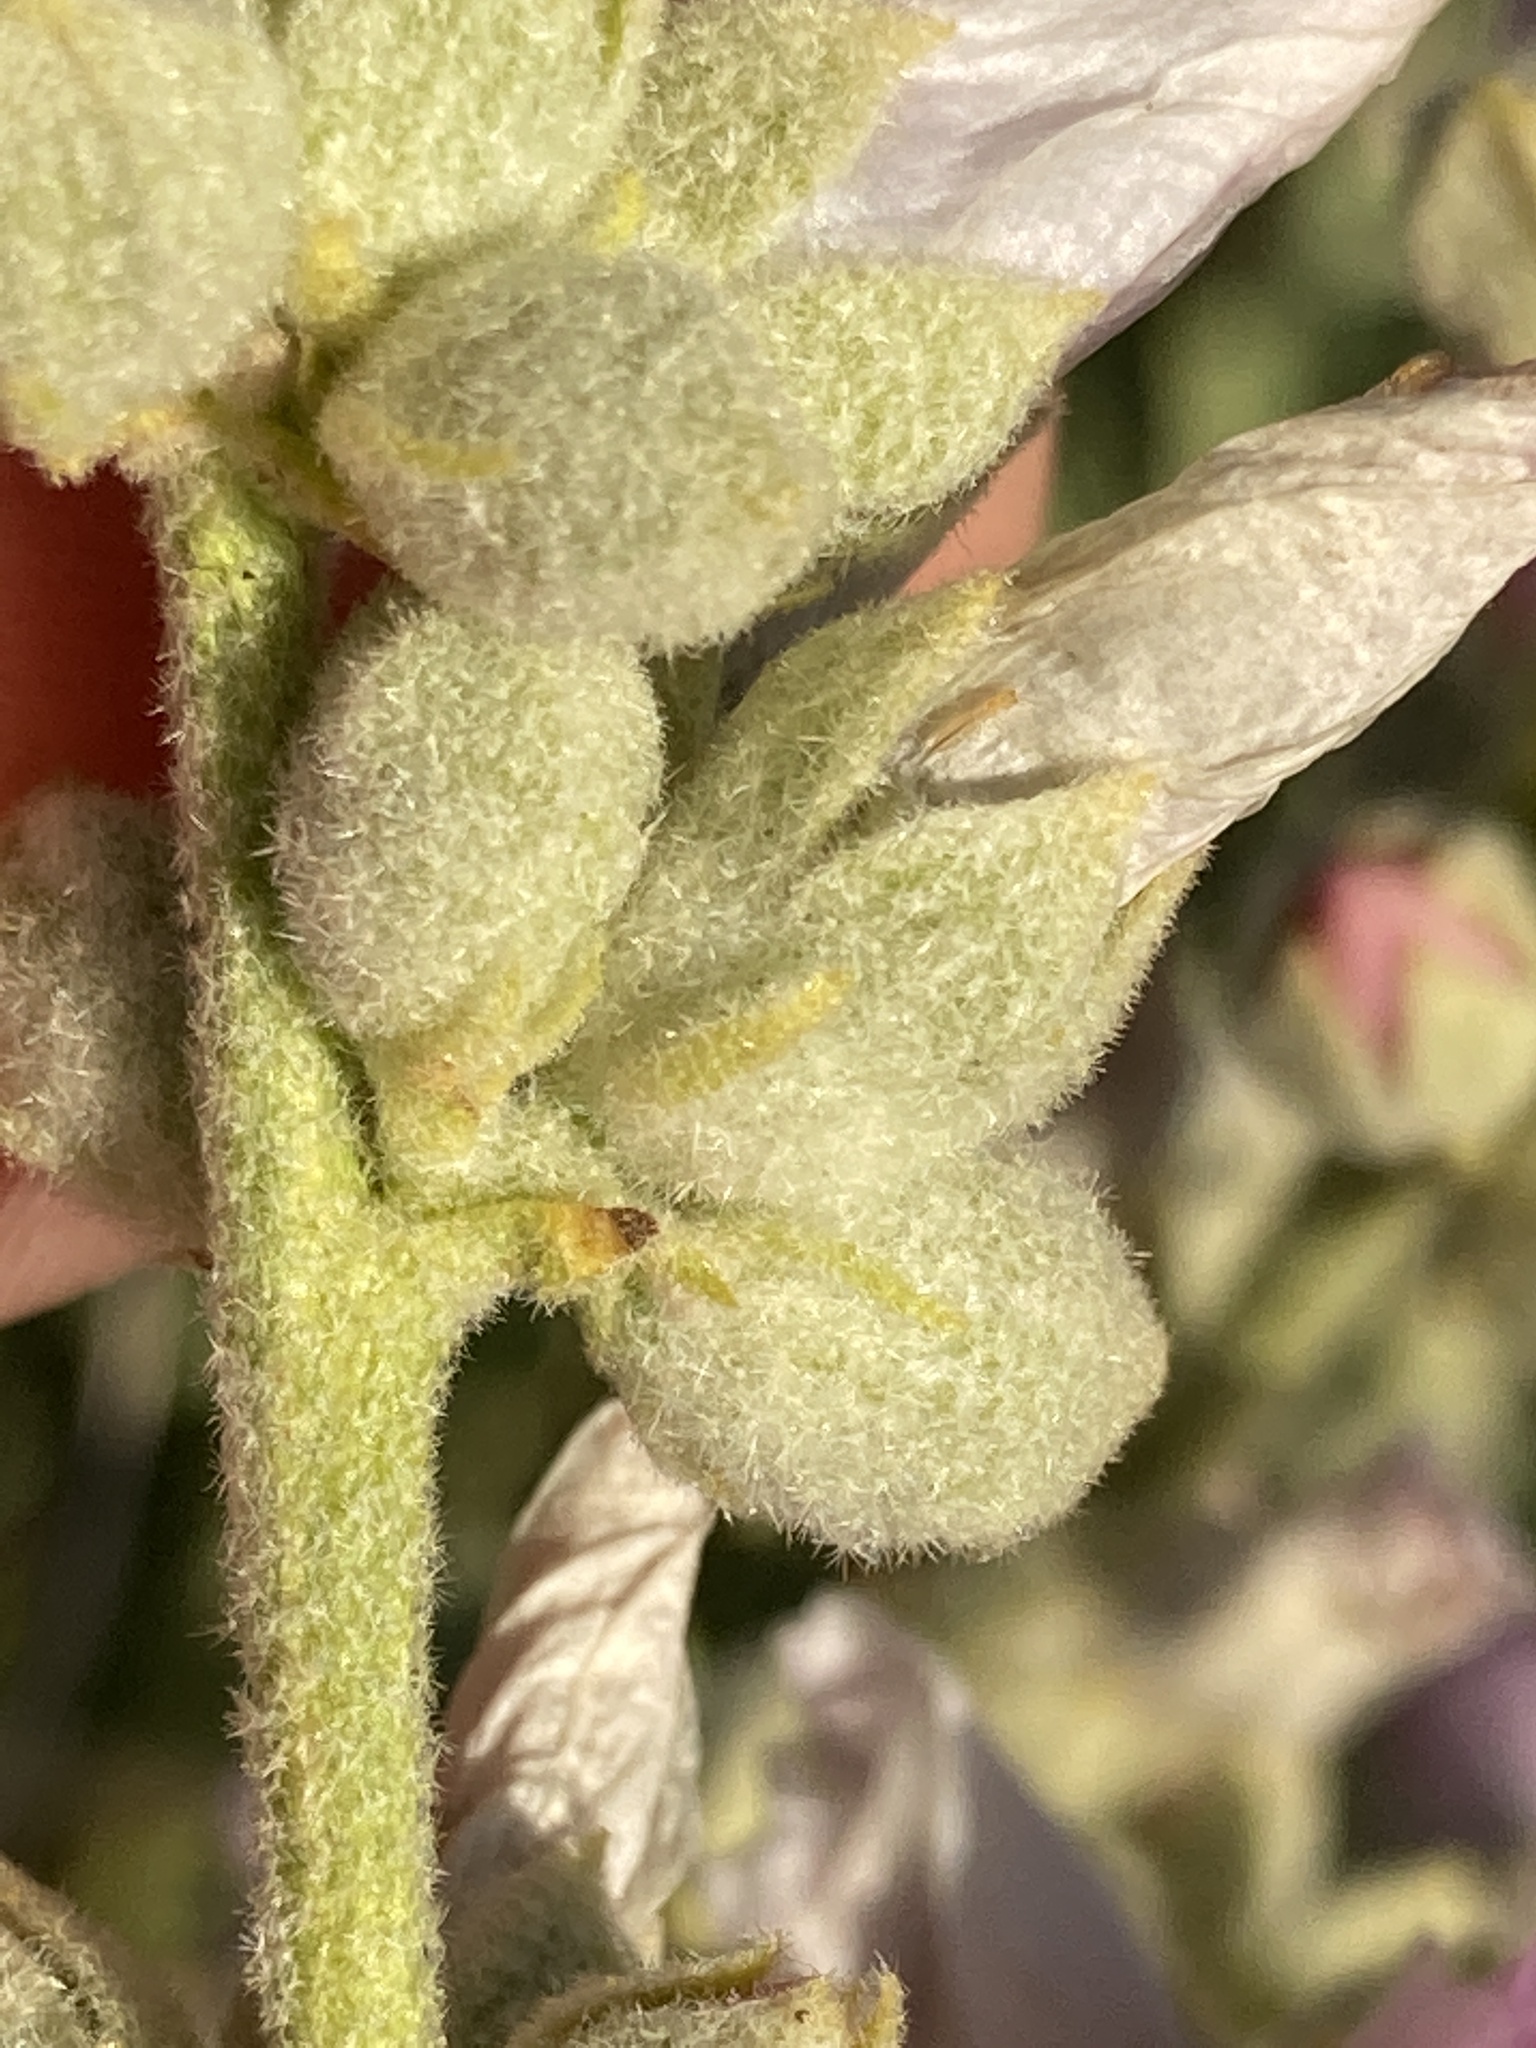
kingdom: Plantae
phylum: Tracheophyta
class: Magnoliopsida
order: Malvales
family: Malvaceae
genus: Malacothamnus
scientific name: Malacothamnus fremontii
